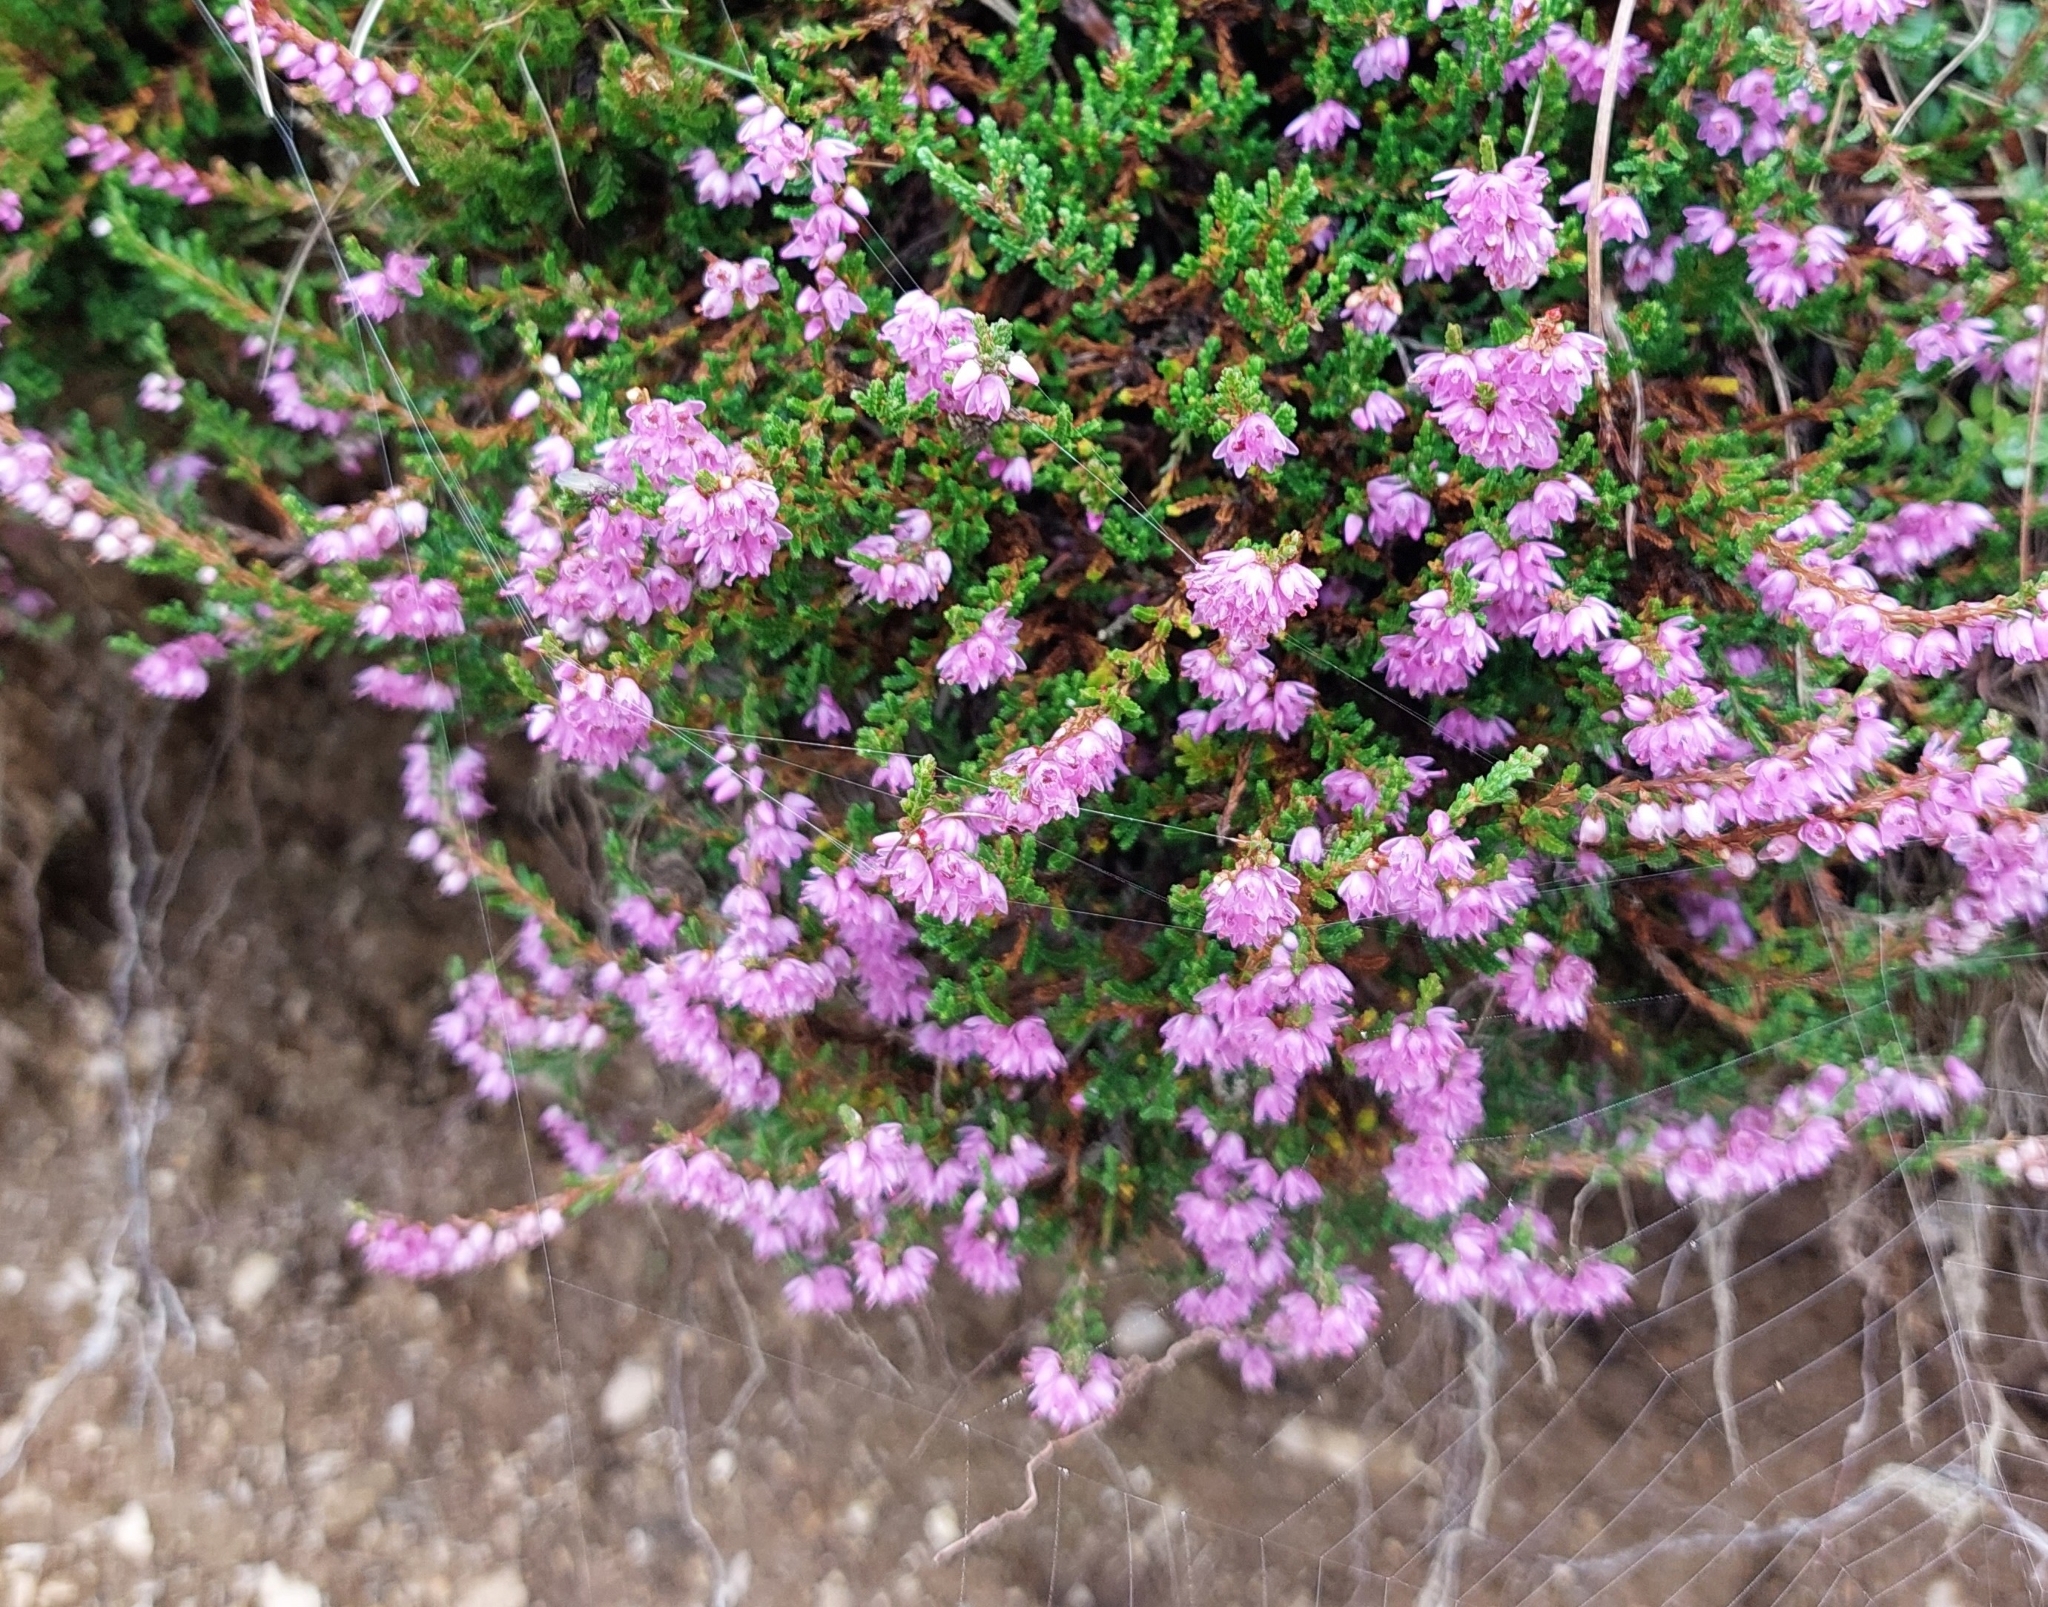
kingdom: Plantae
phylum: Tracheophyta
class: Magnoliopsida
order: Ericales
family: Ericaceae
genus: Calluna
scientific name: Calluna vulgaris
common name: Heather
